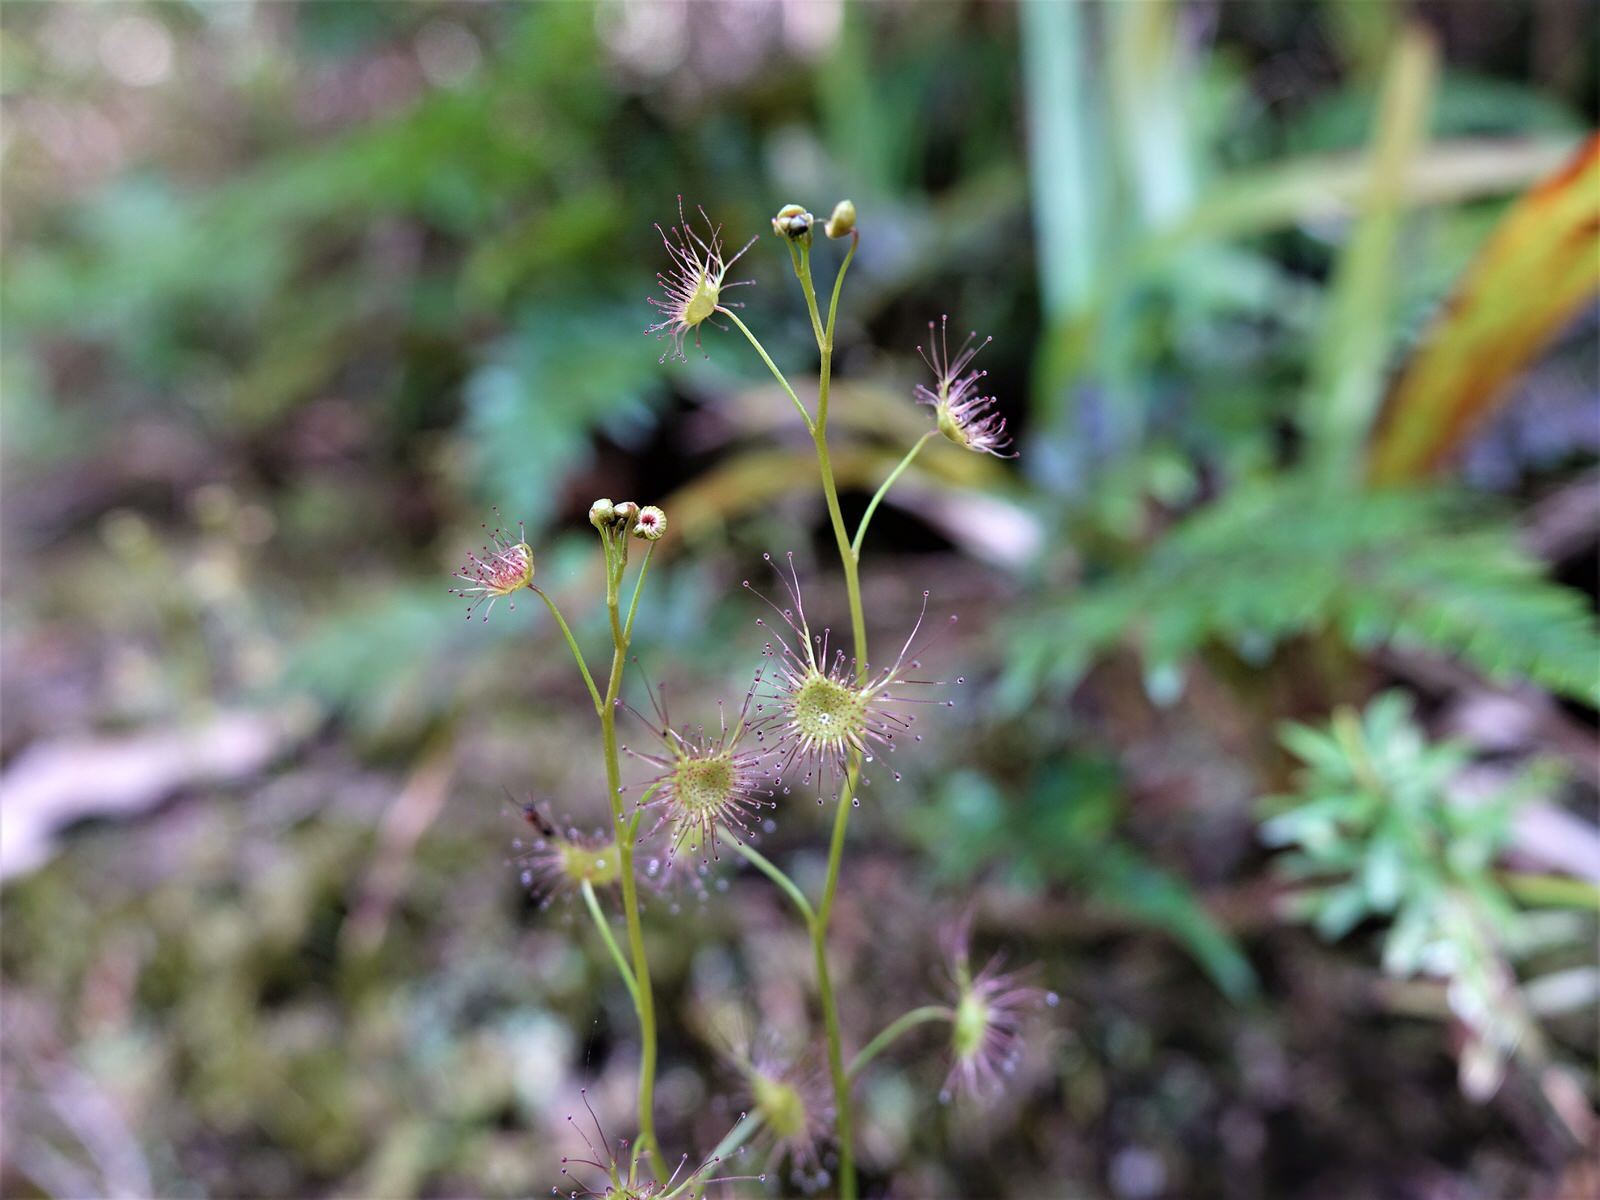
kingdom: Plantae
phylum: Tracheophyta
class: Magnoliopsida
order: Caryophyllales
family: Droseraceae
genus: Drosera
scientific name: Drosera peltata
